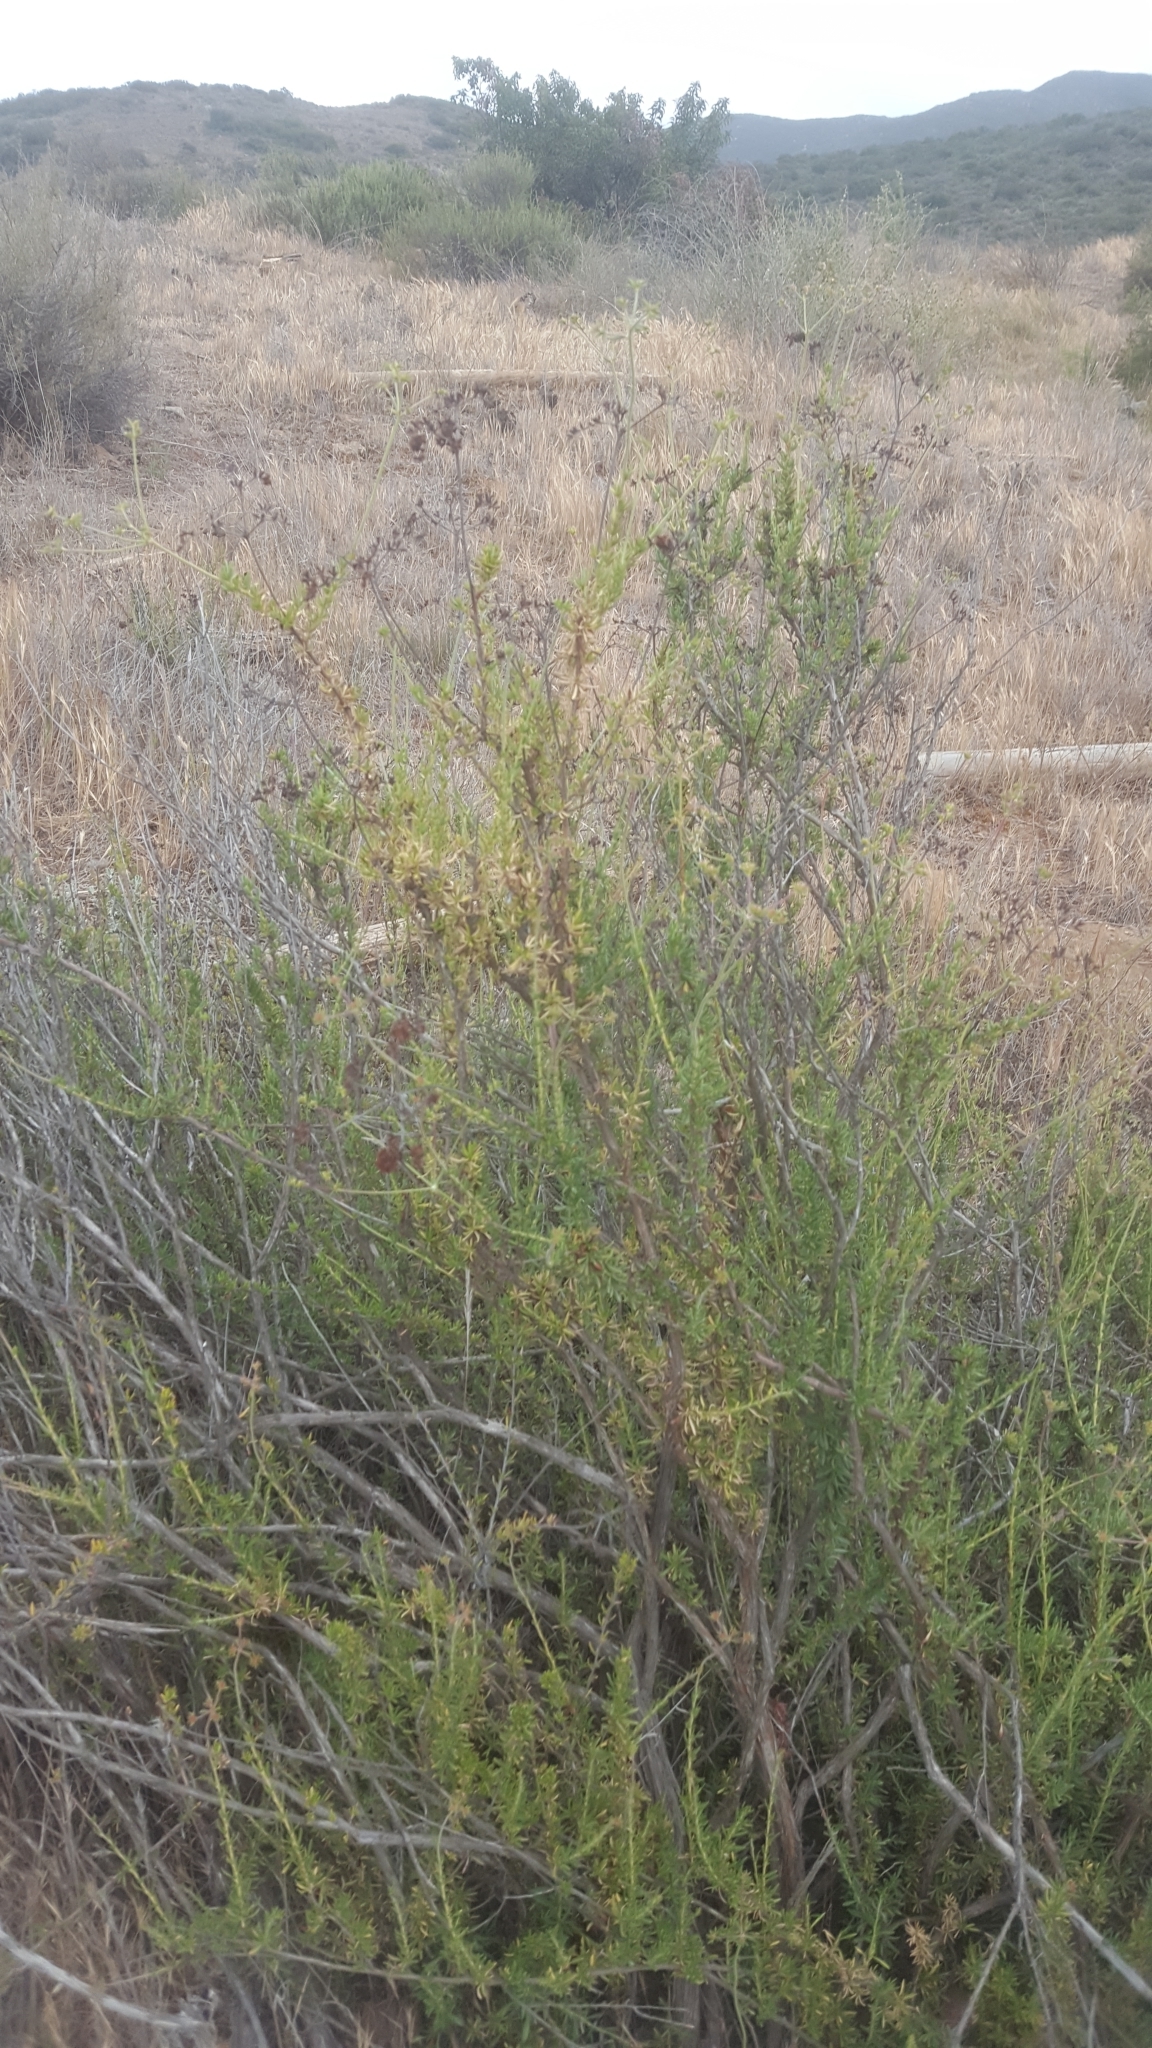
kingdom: Plantae
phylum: Tracheophyta
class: Magnoliopsida
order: Caryophyllales
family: Polygonaceae
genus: Eriogonum
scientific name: Eriogonum fasciculatum
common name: California wild buckwheat
